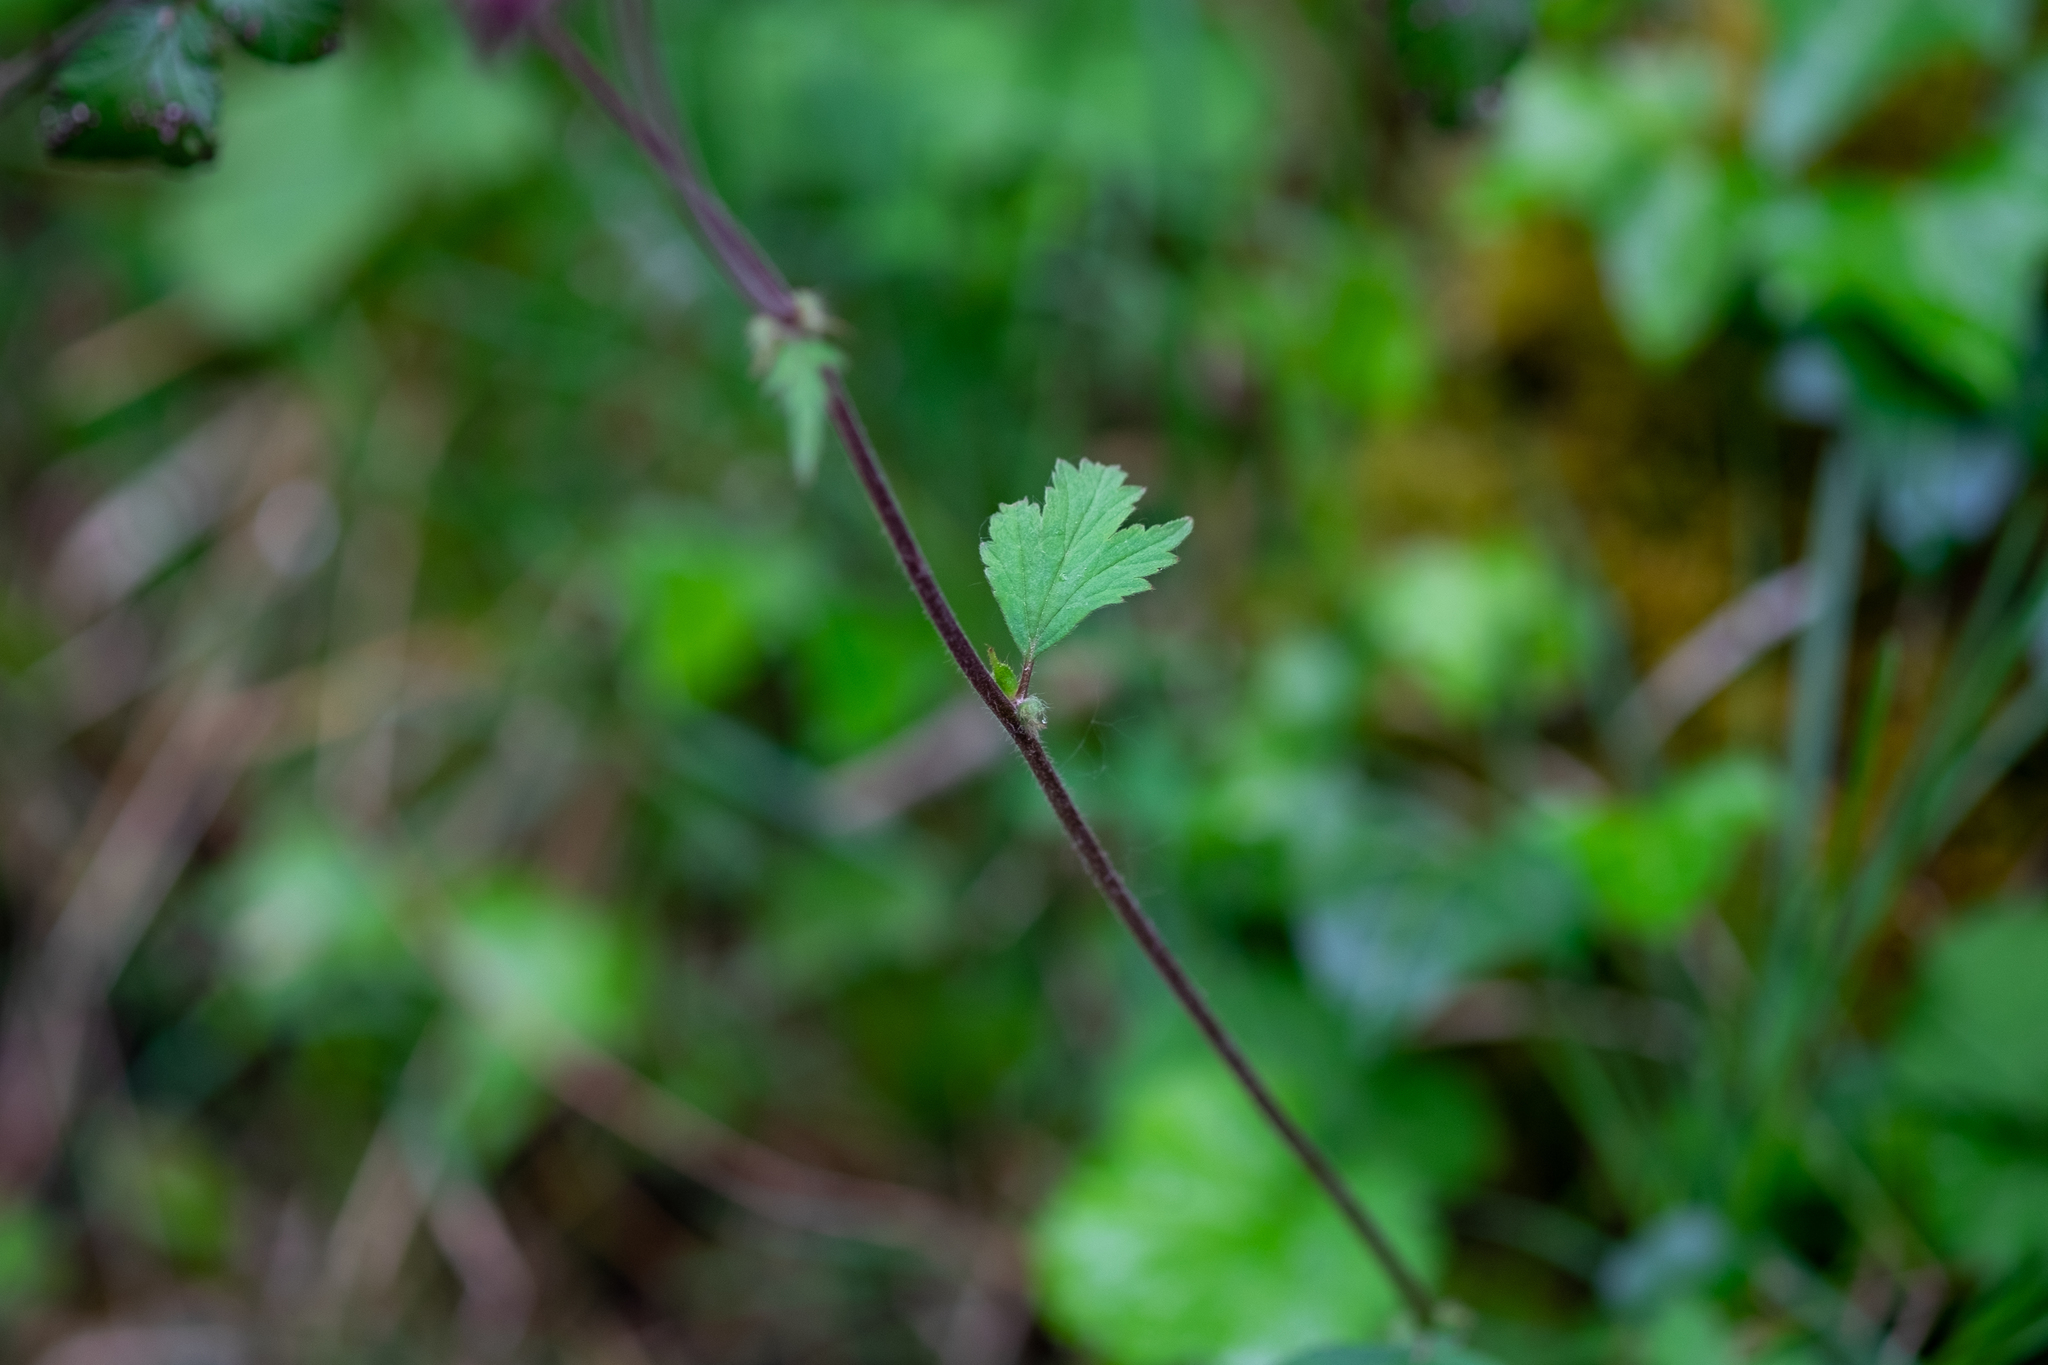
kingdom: Plantae
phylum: Tracheophyta
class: Magnoliopsida
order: Rosales
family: Rosaceae
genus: Geum
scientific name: Geum rivale
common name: Water avens
